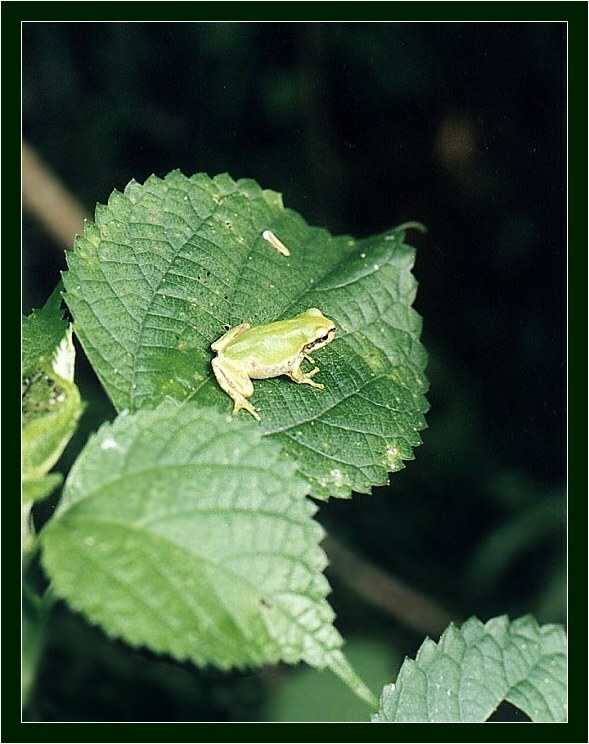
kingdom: Animalia
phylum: Chordata
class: Amphibia
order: Anura
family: Hylidae
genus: Dryophytes
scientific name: Dryophytes japonicus
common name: Japanese treefrog
